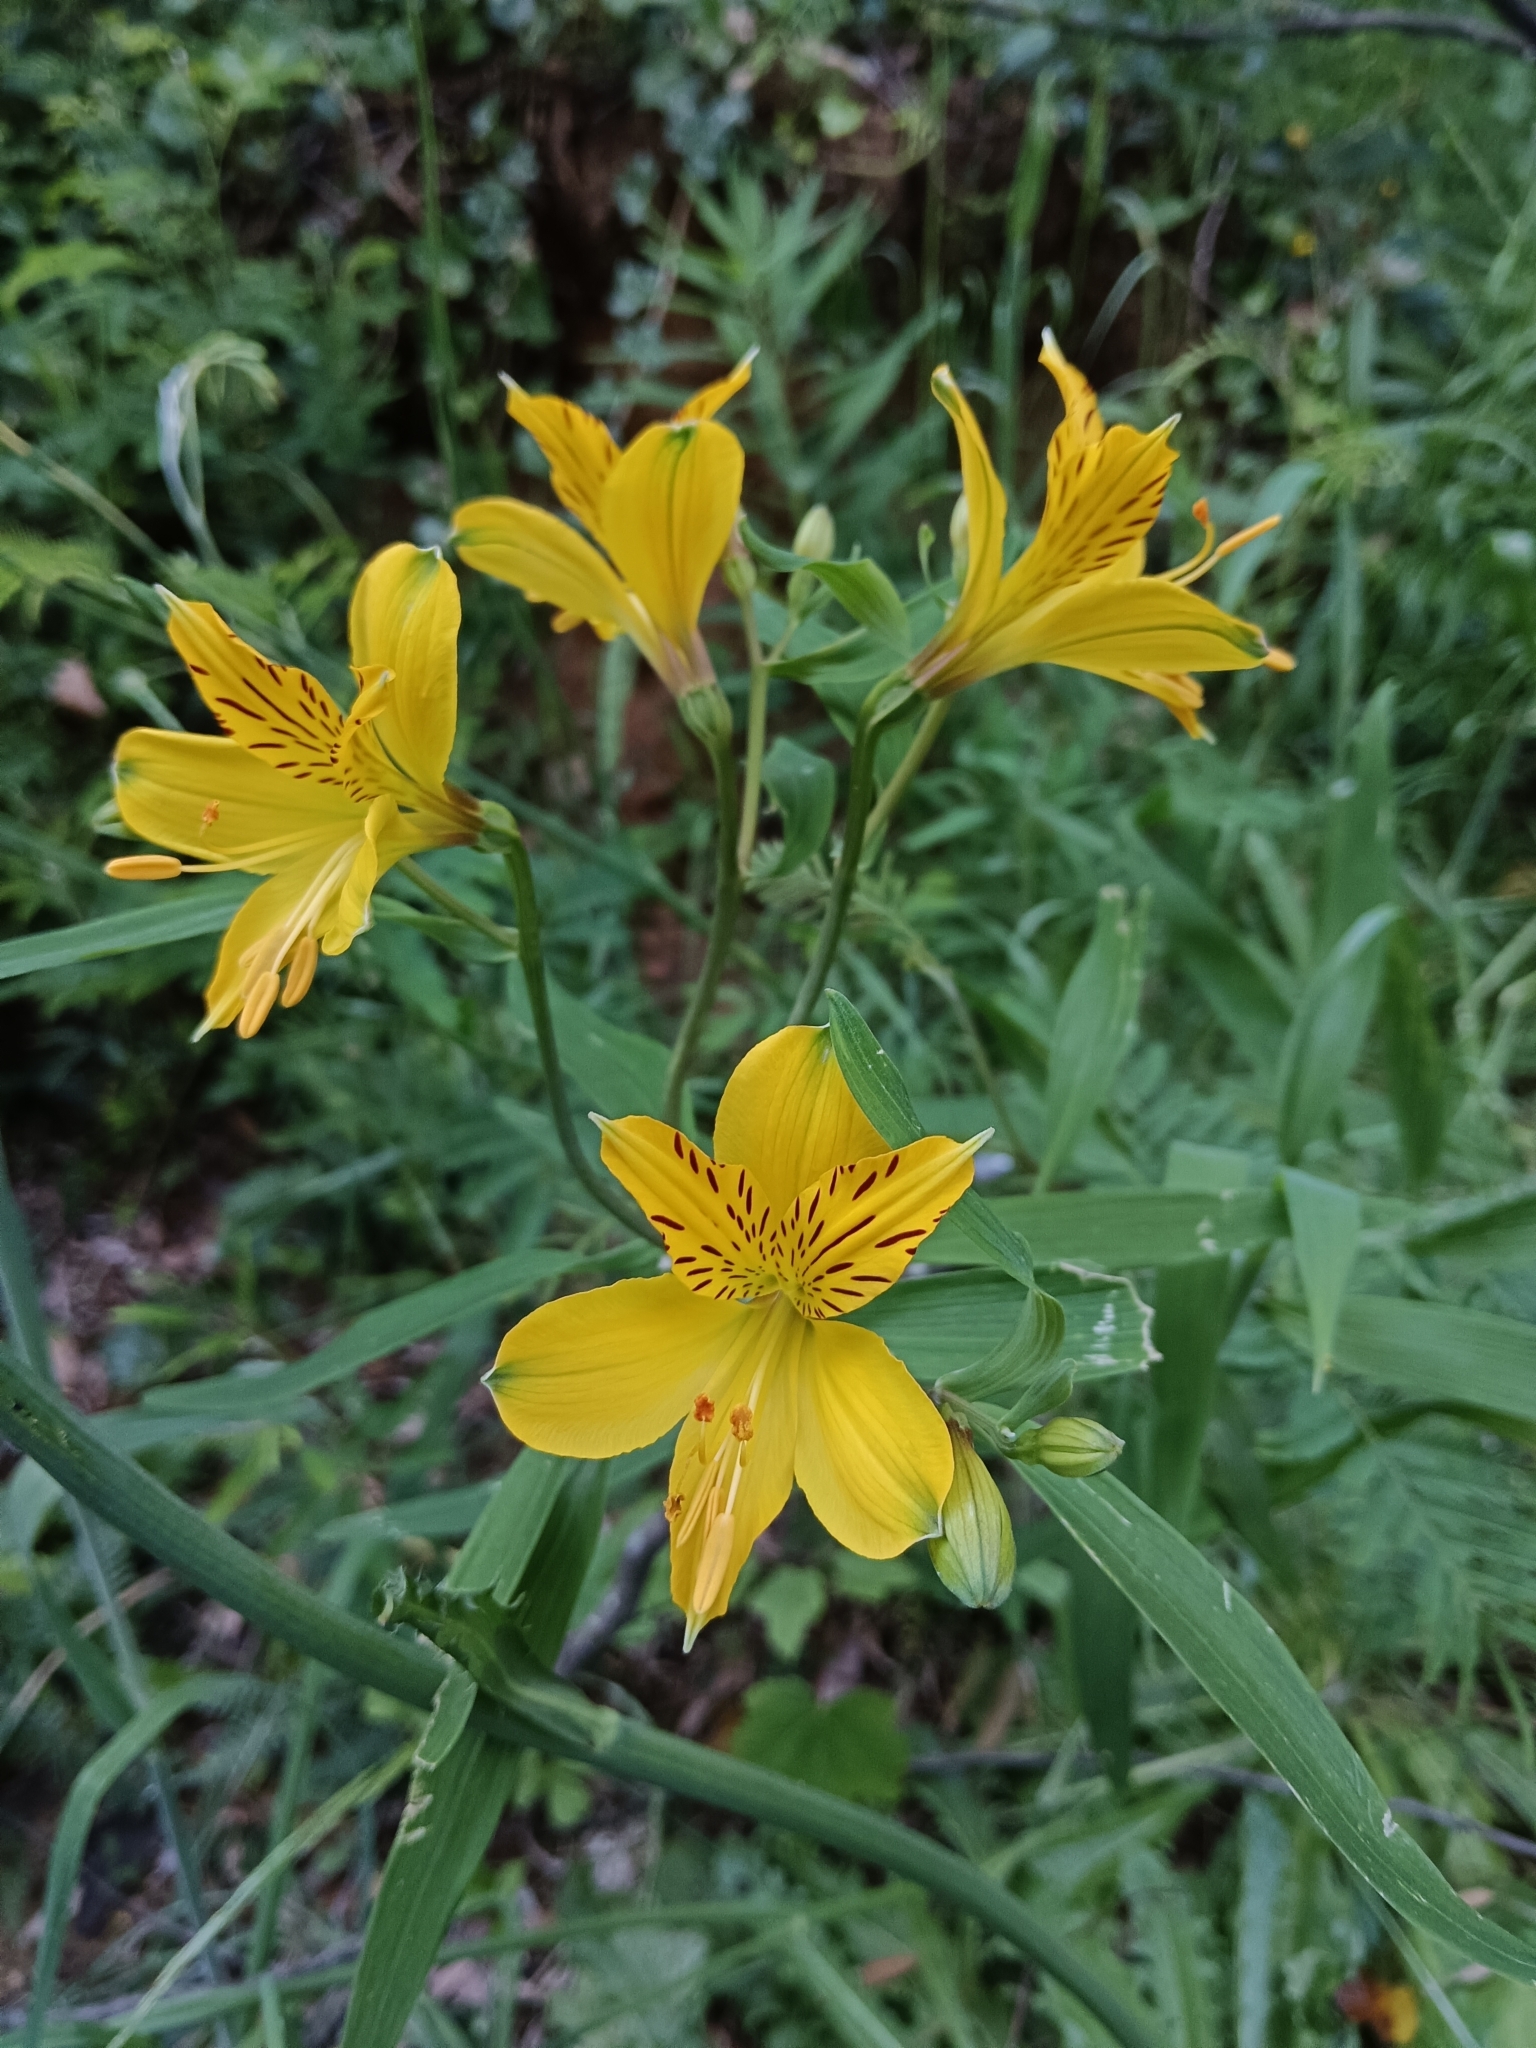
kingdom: Plantae
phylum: Tracheophyta
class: Liliopsida
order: Liliales
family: Alstroemeriaceae
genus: Alstroemeria
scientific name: Alstroemeria aurea
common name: Peruvian lily
